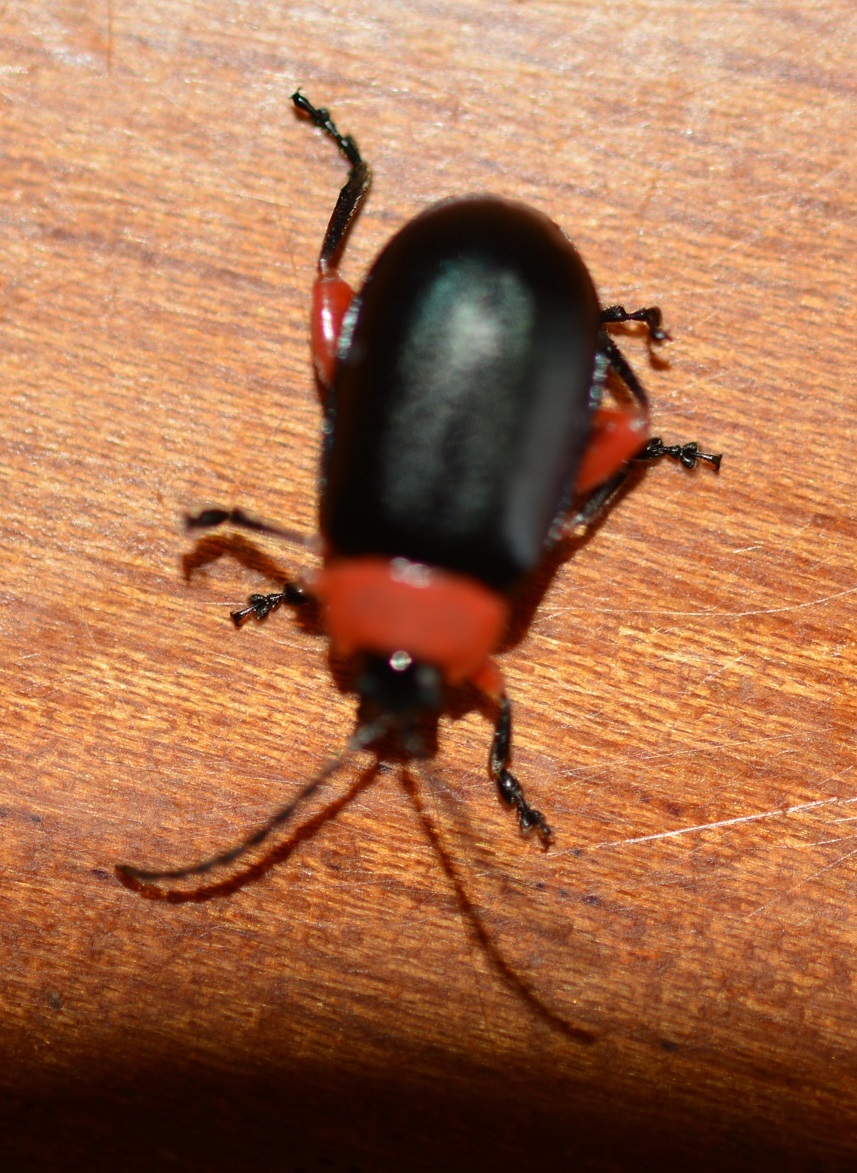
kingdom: Animalia
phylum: Arthropoda
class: Insecta
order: Coleoptera
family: Chrysomelidae
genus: Asphaera
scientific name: Asphaera abdominalis
